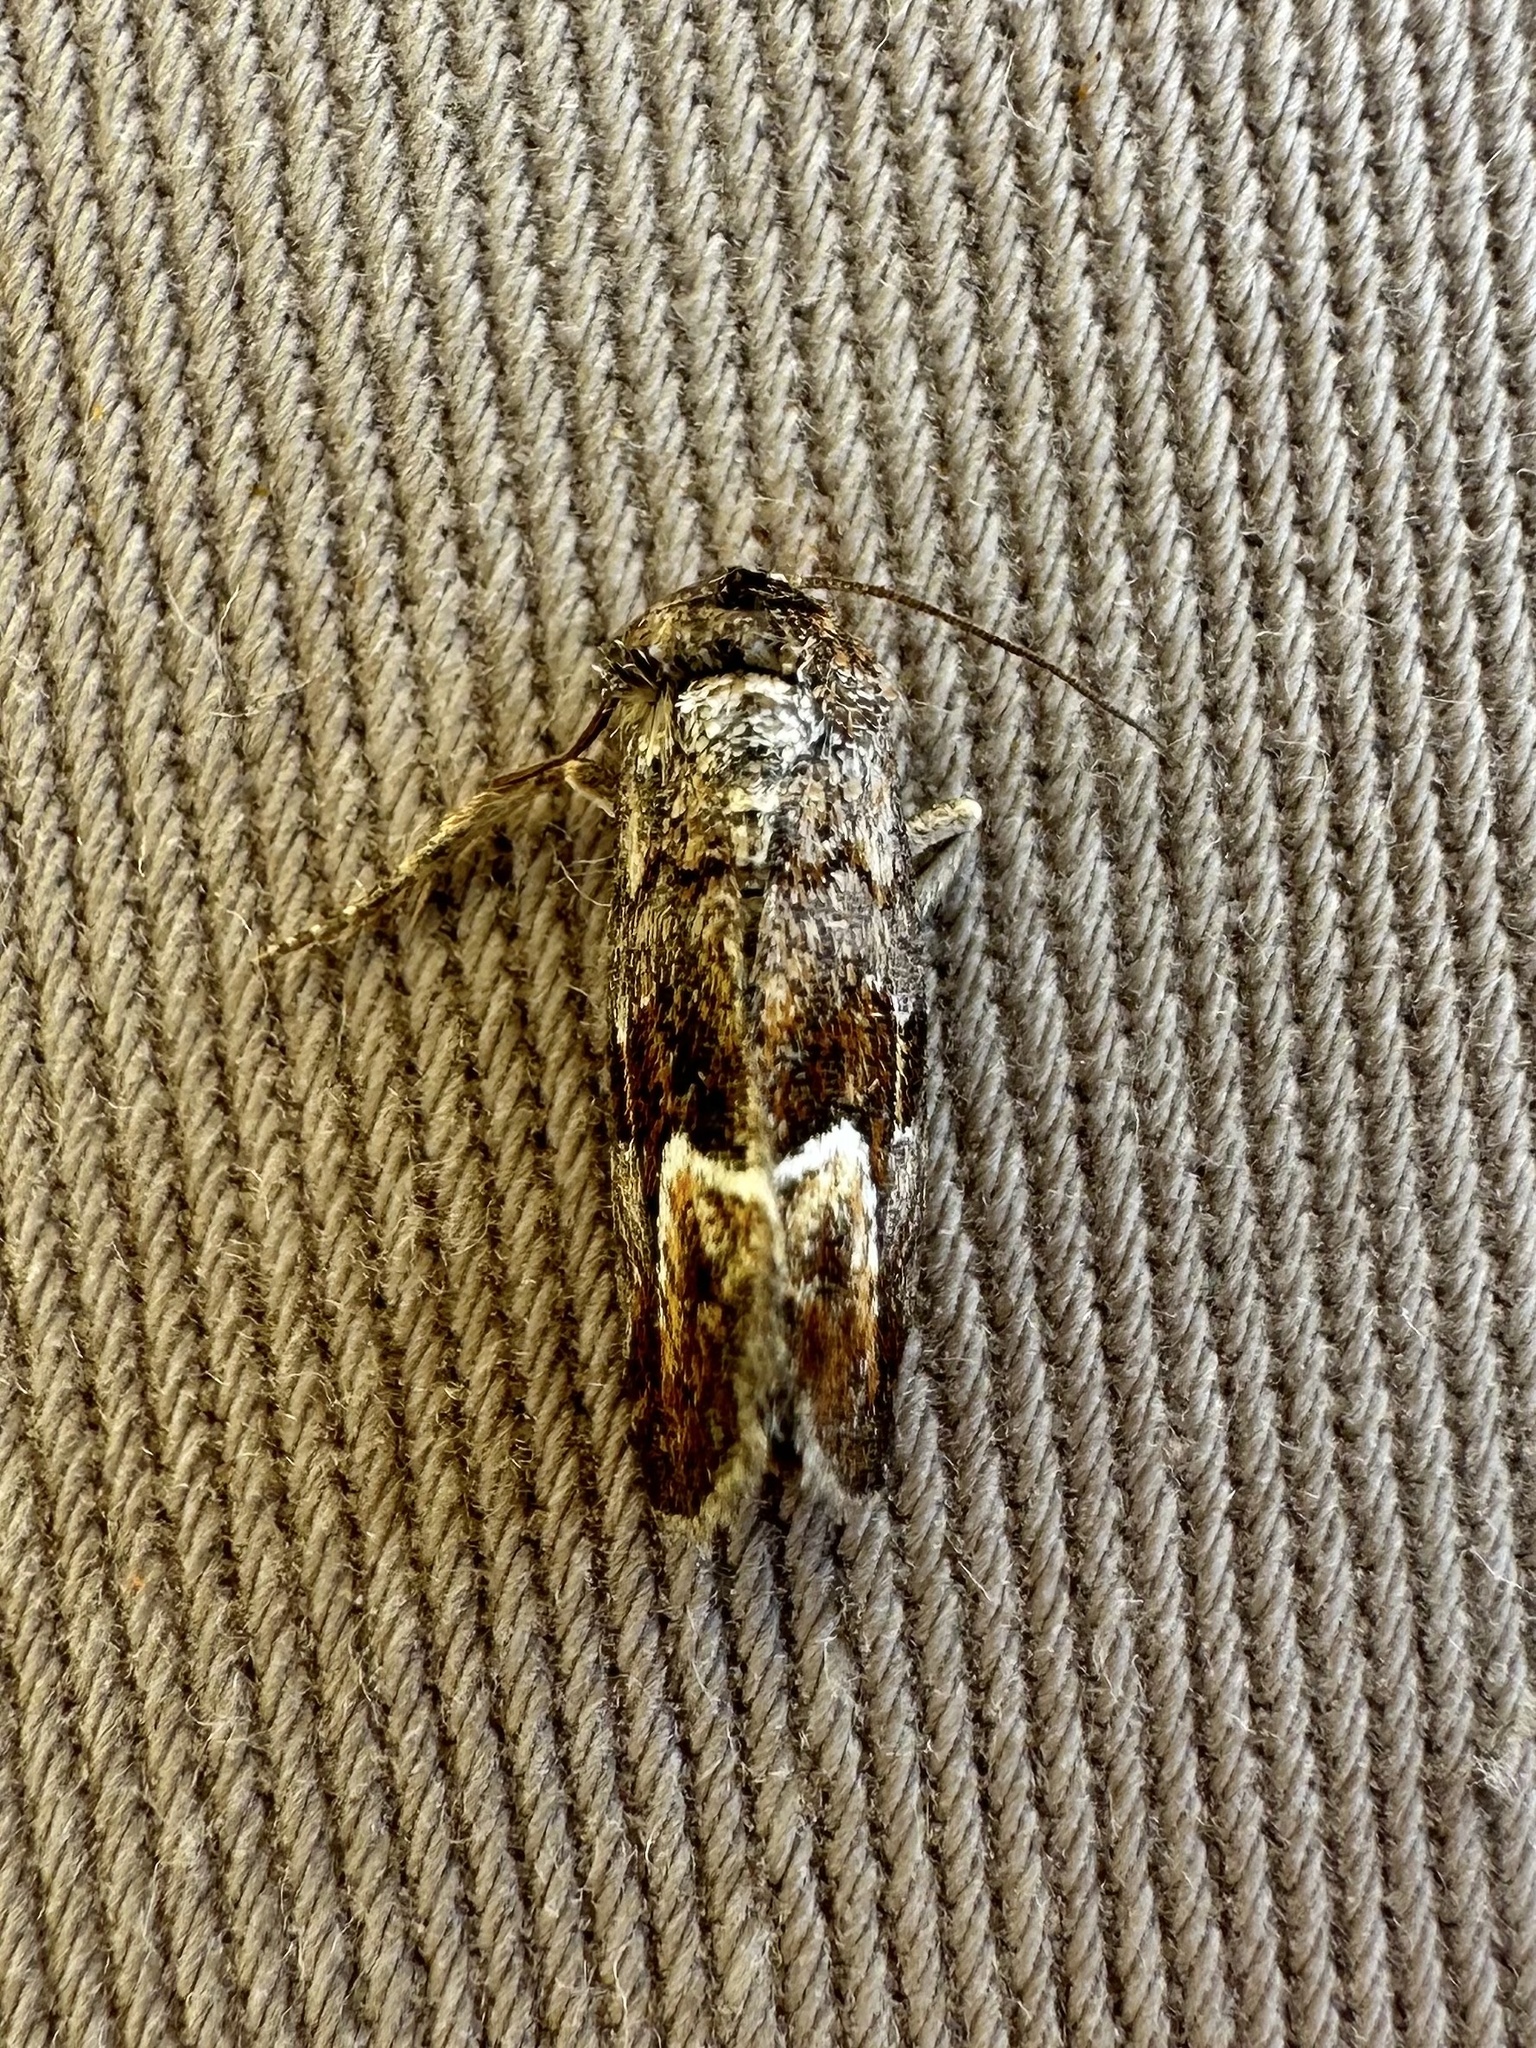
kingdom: Animalia
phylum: Arthropoda
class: Insecta
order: Lepidoptera
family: Noctuidae
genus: Deltote
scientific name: Deltote bellicula
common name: Bog glyph
